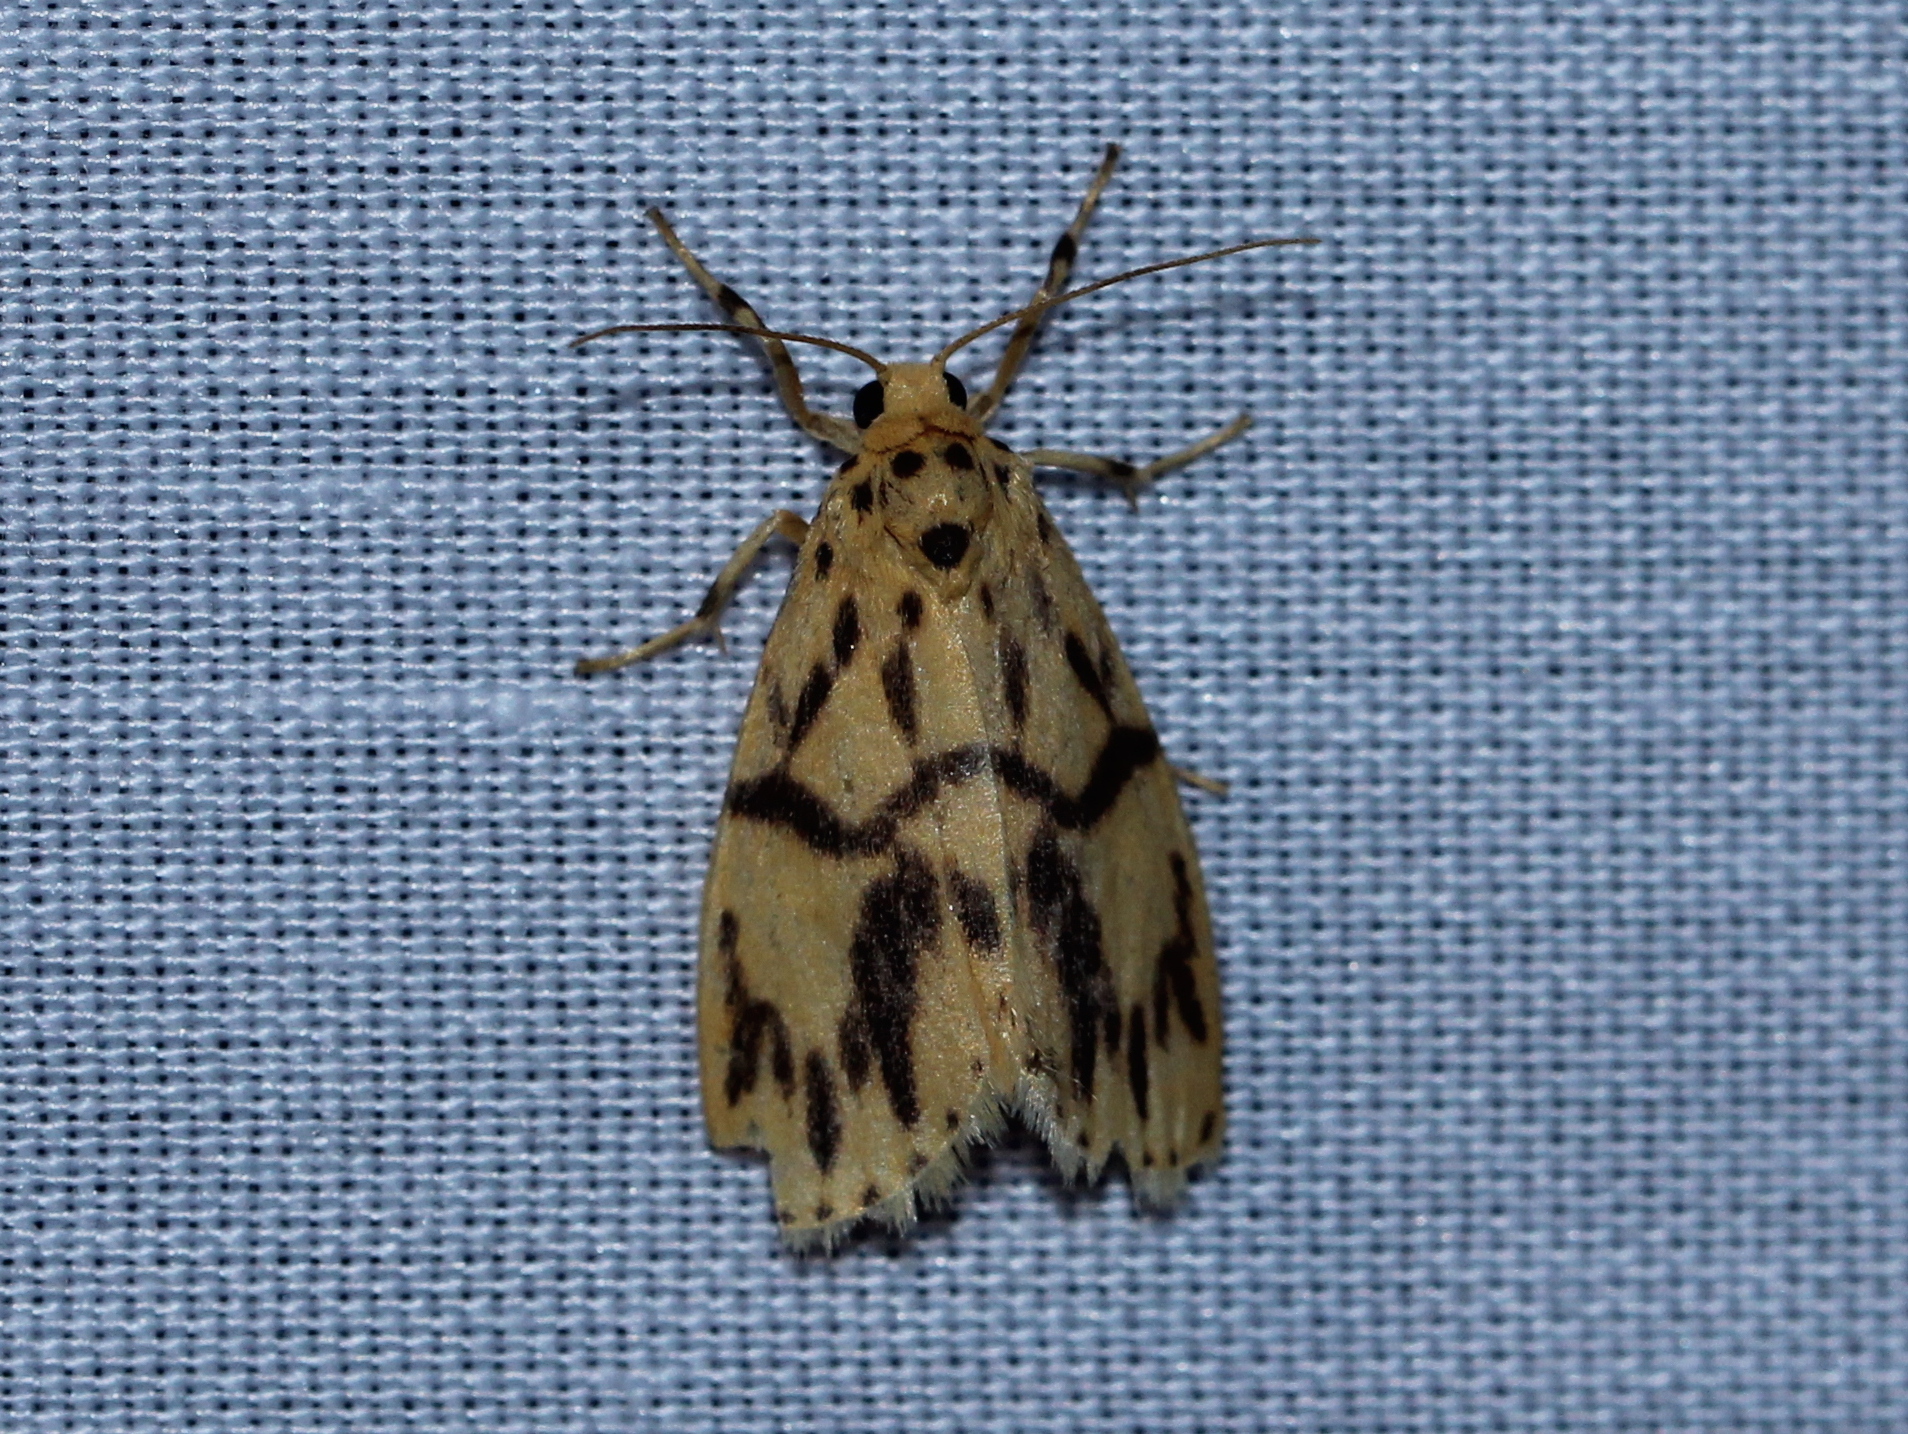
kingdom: Animalia
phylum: Arthropoda
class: Insecta
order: Lepidoptera
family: Erebidae
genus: Miltochrista
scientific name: Miltochrista terminospota
